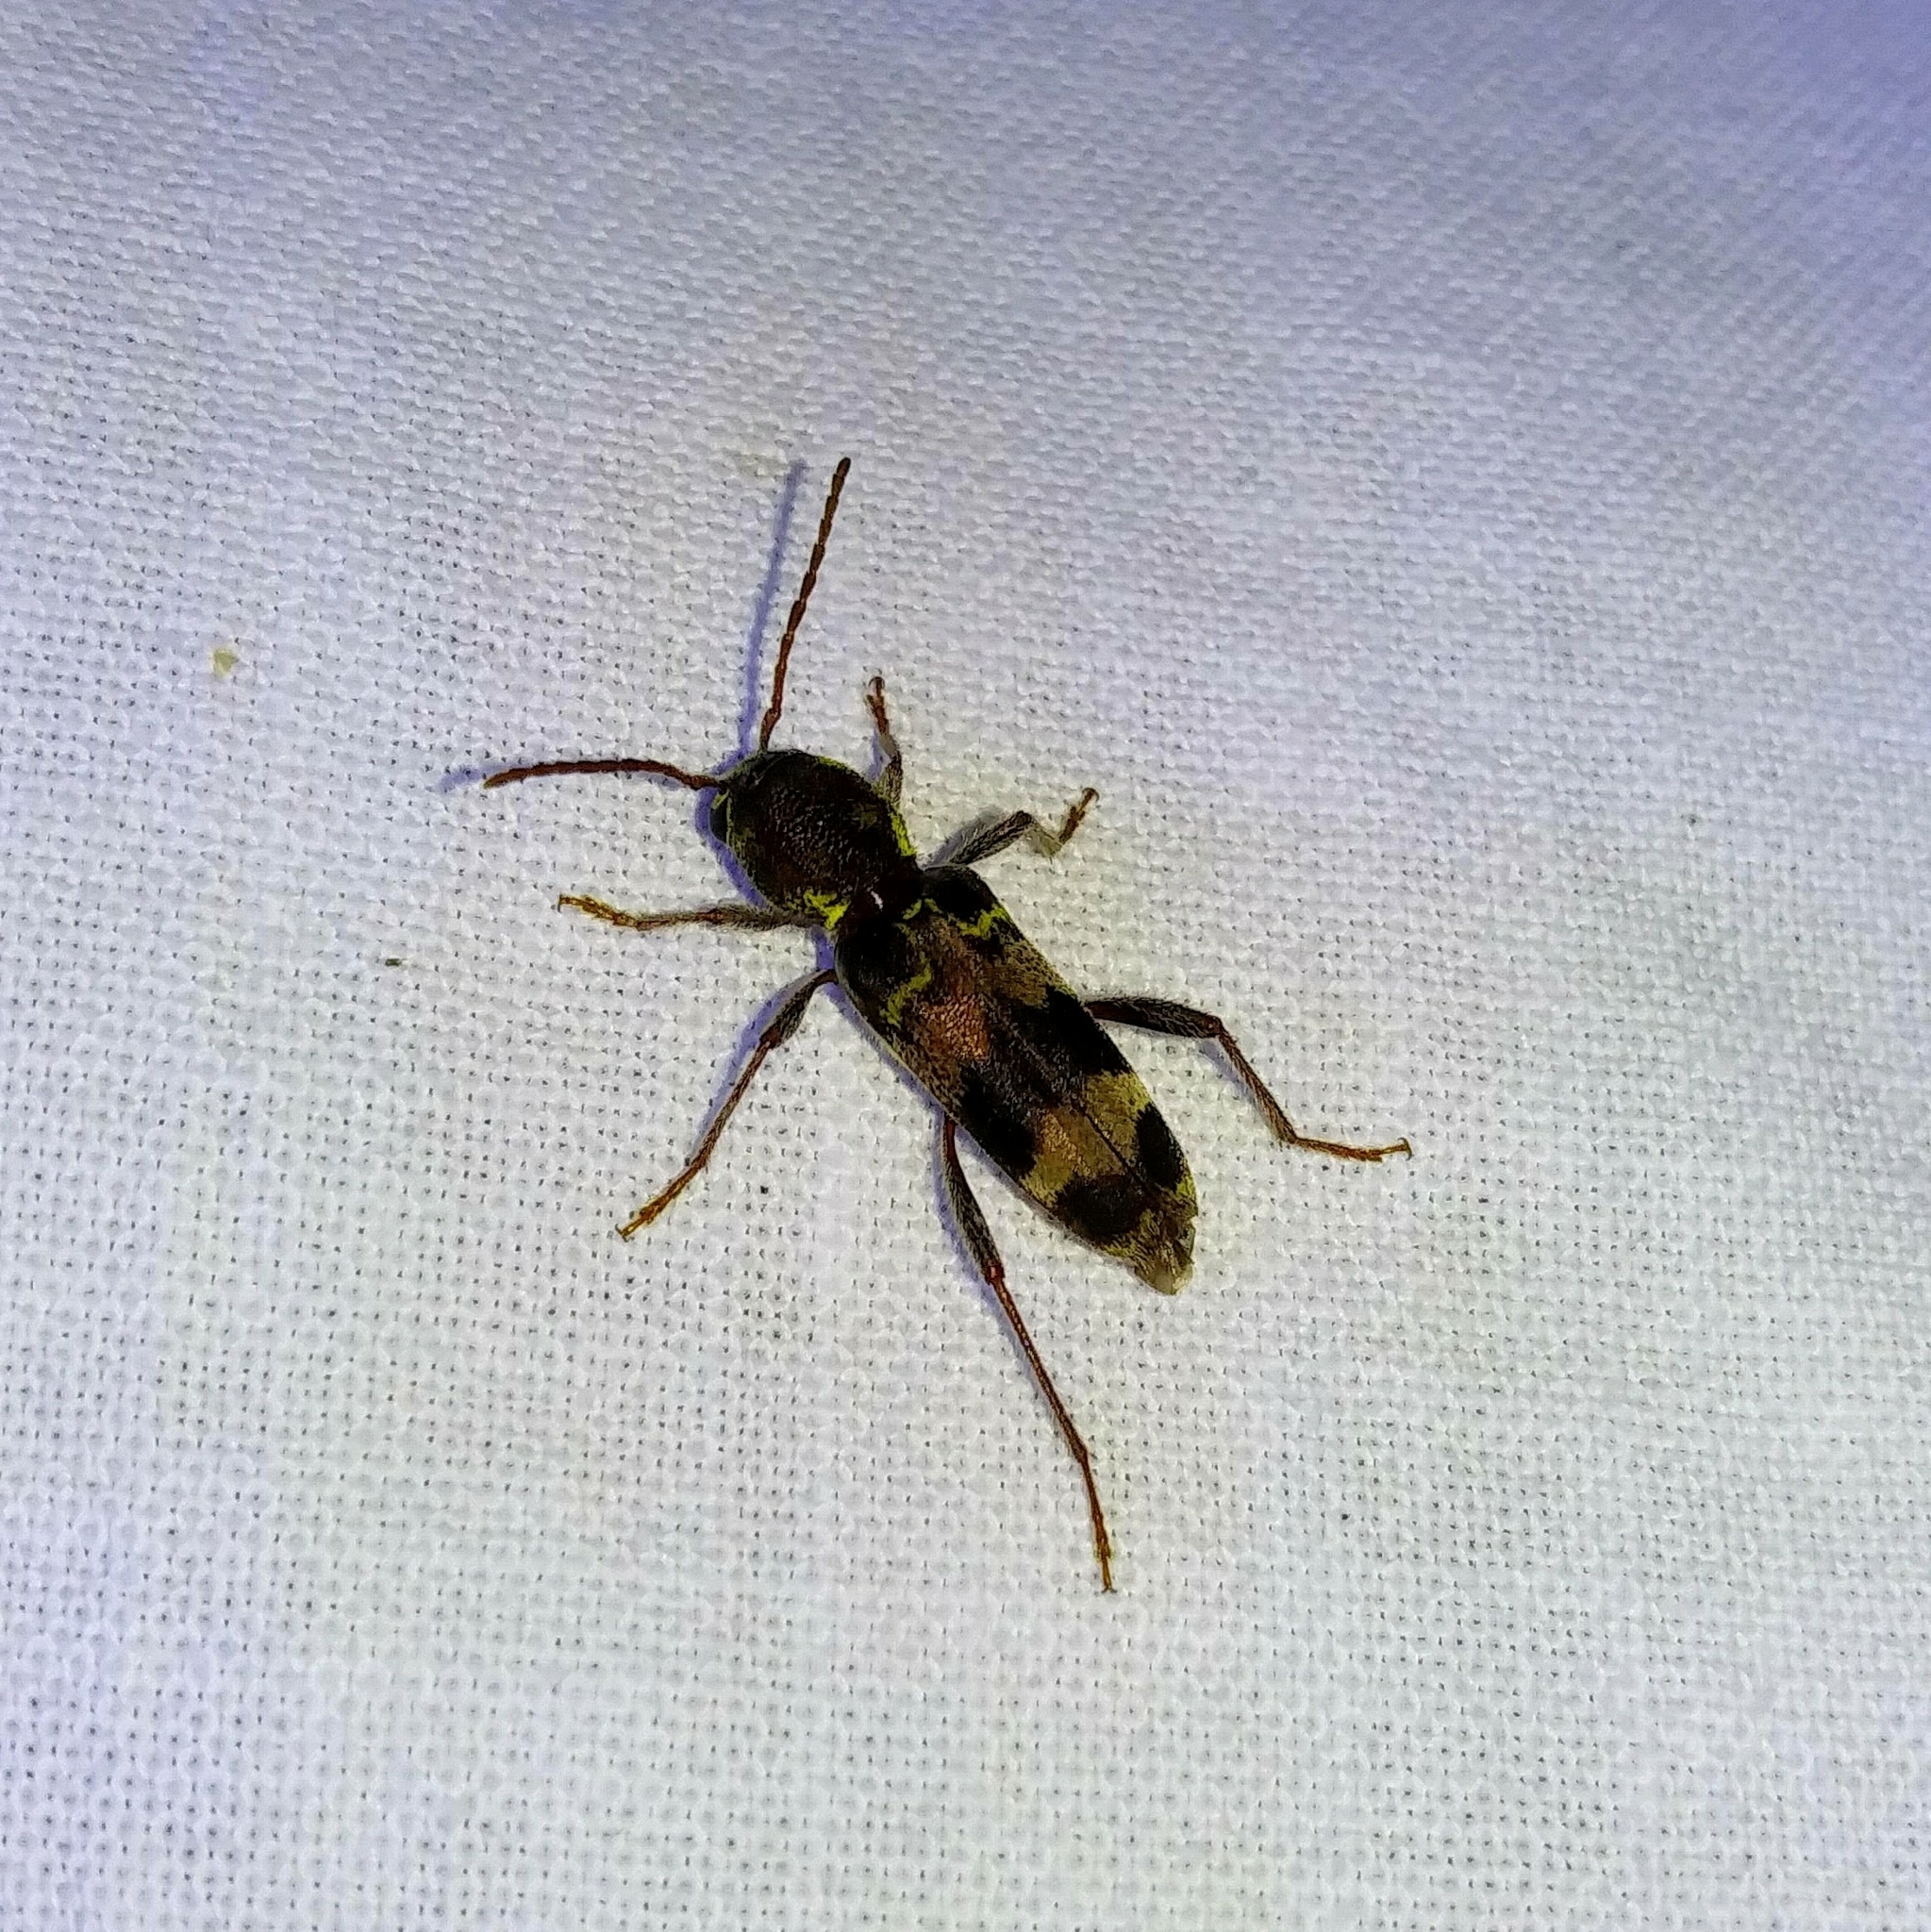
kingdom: Animalia
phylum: Arthropoda
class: Insecta
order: Coleoptera
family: Cerambycidae
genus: Xylotrechus
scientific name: Xylotrechus colonus
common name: Long-horned beetle
